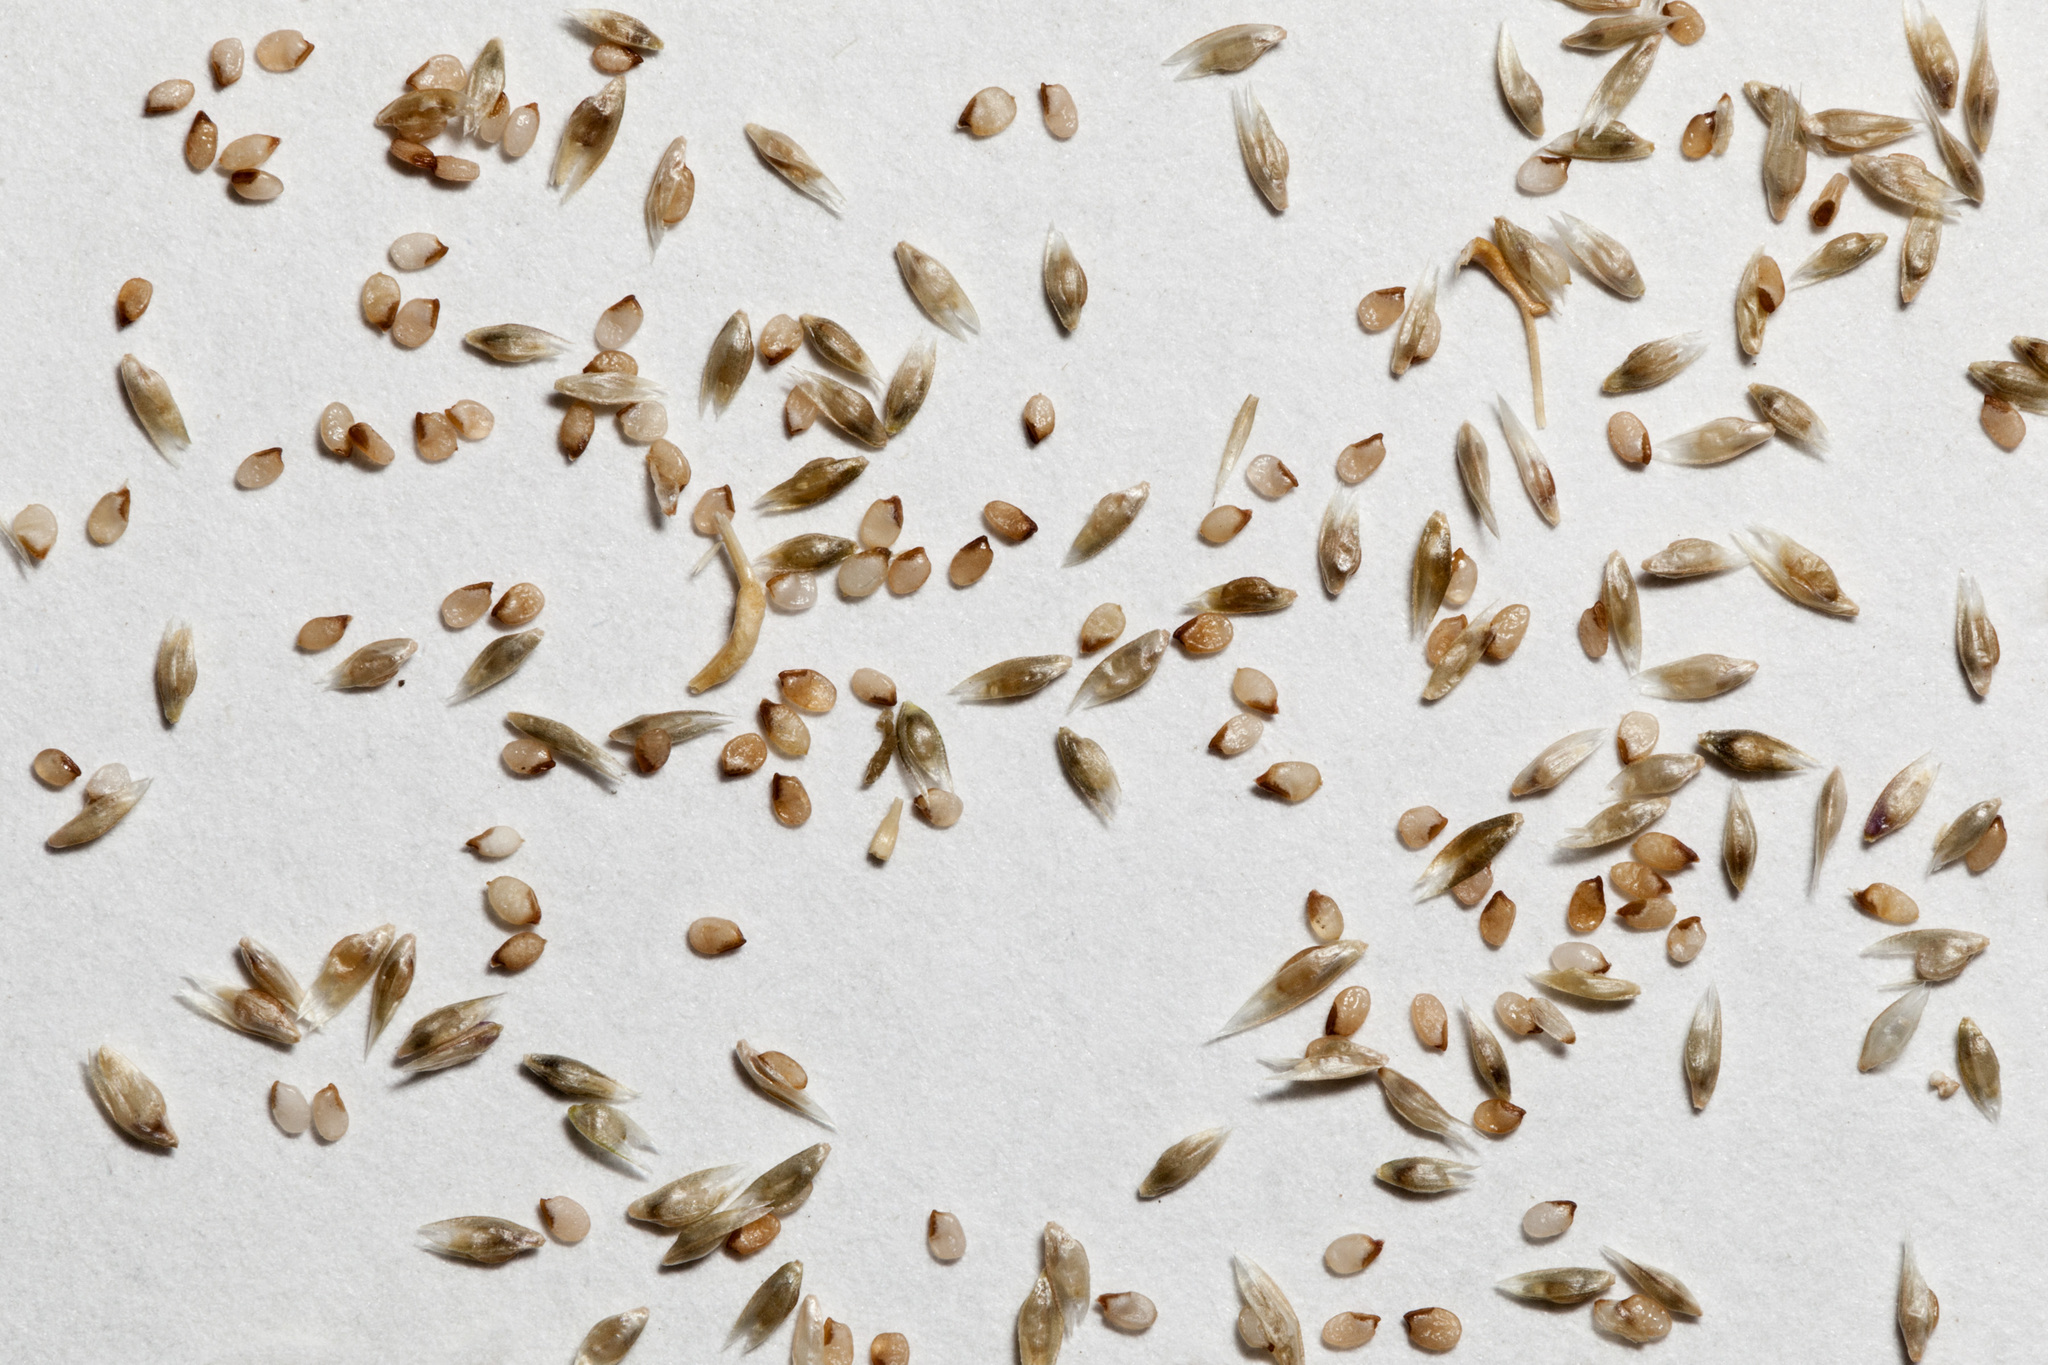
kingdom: Plantae
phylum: Tracheophyta
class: Liliopsida
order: Poales
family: Poaceae
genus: Sporobolus
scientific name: Sporobolus flexuosus
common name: Mesa dropseed
